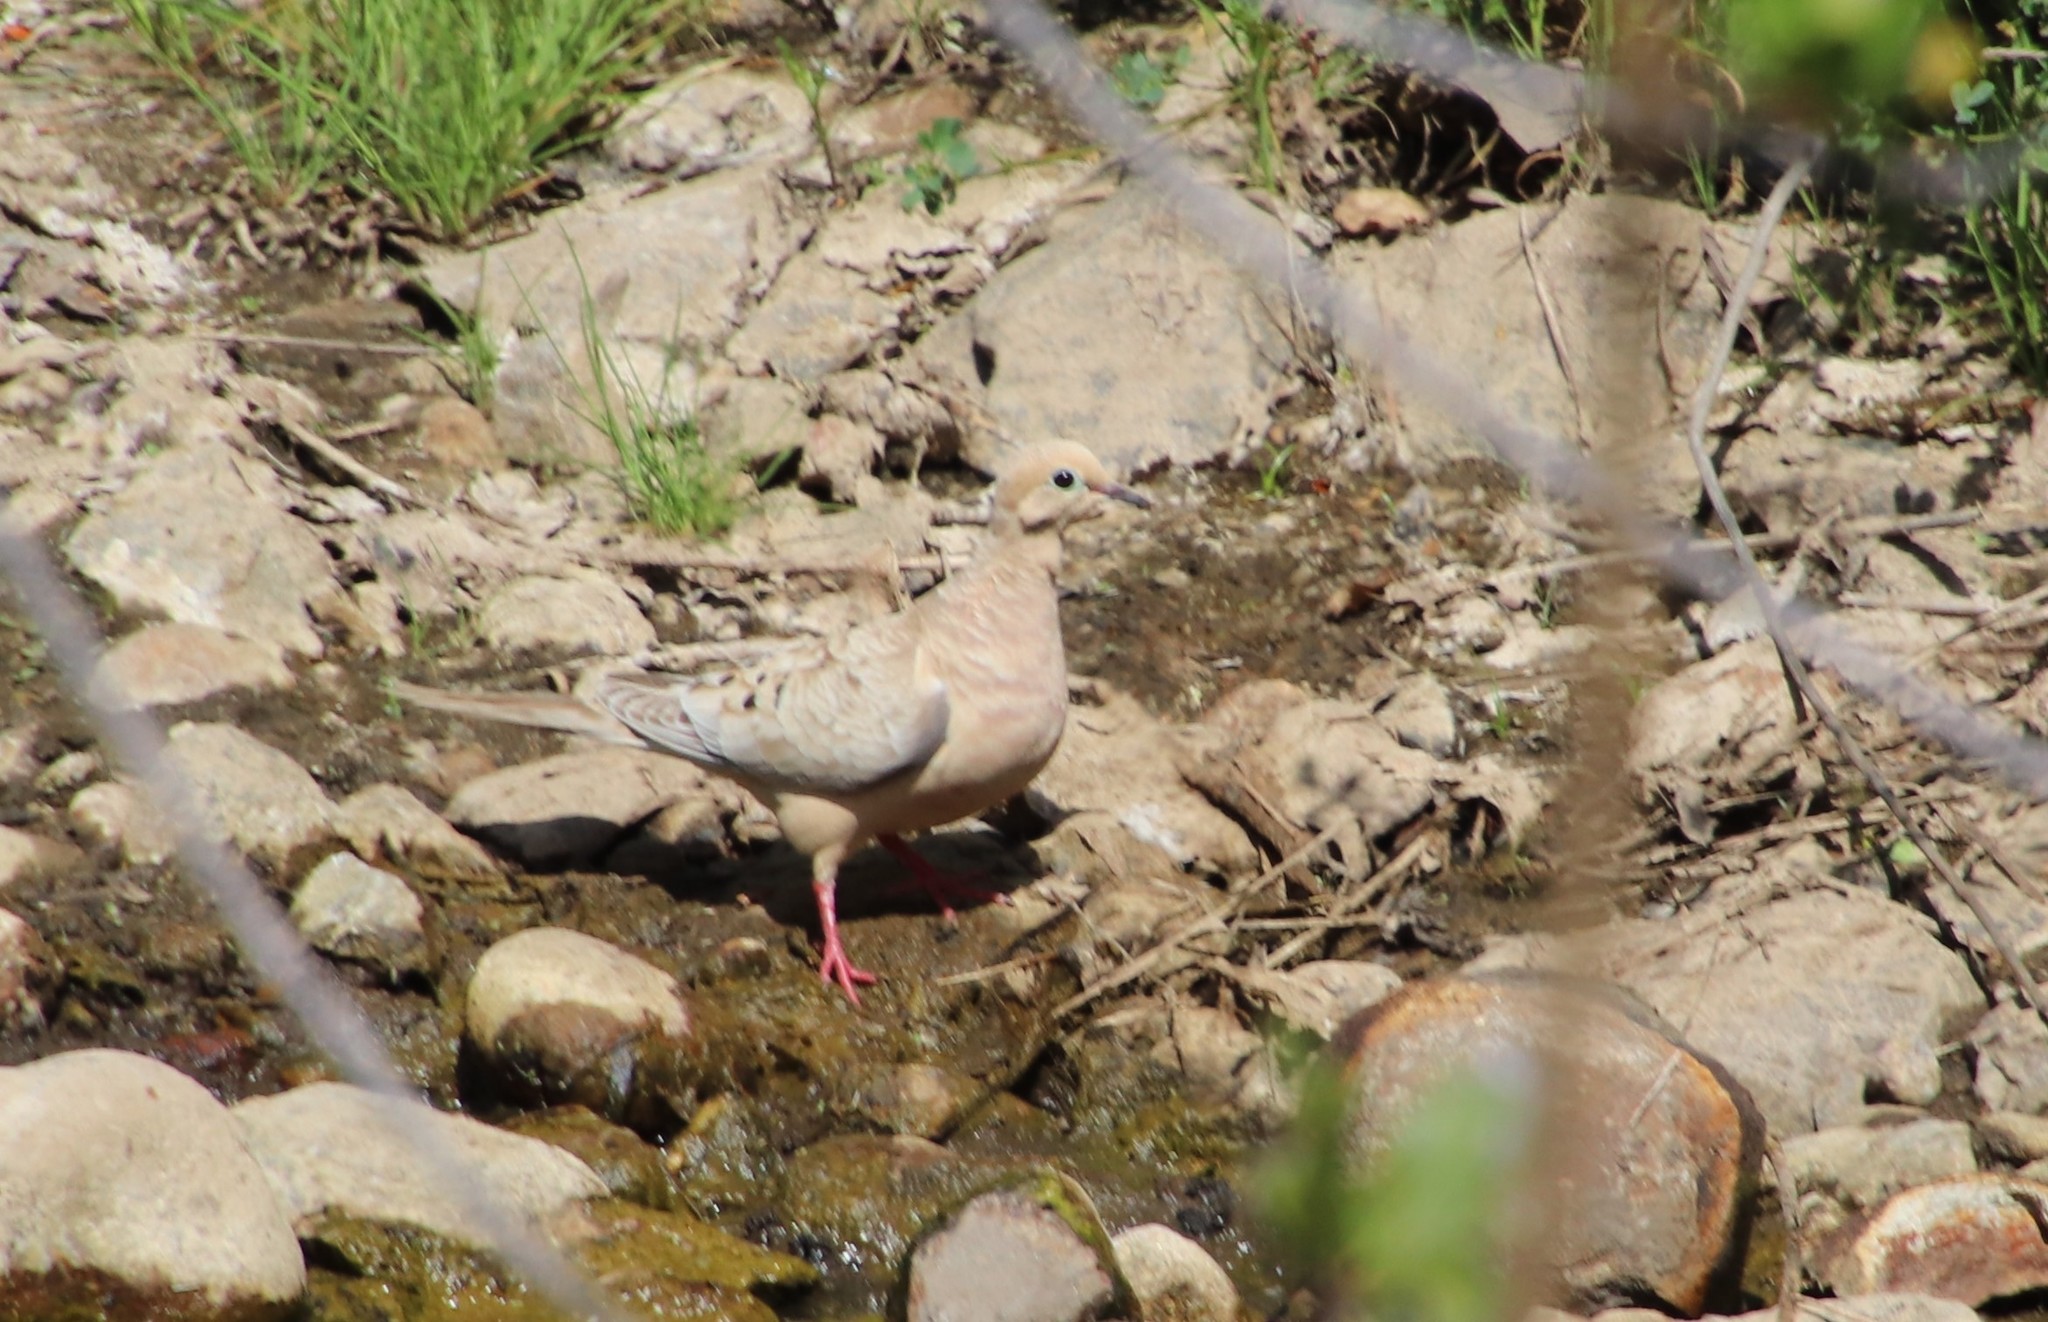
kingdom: Animalia
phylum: Chordata
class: Aves
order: Columbiformes
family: Columbidae
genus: Zenaida
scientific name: Zenaida macroura
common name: Mourning dove
